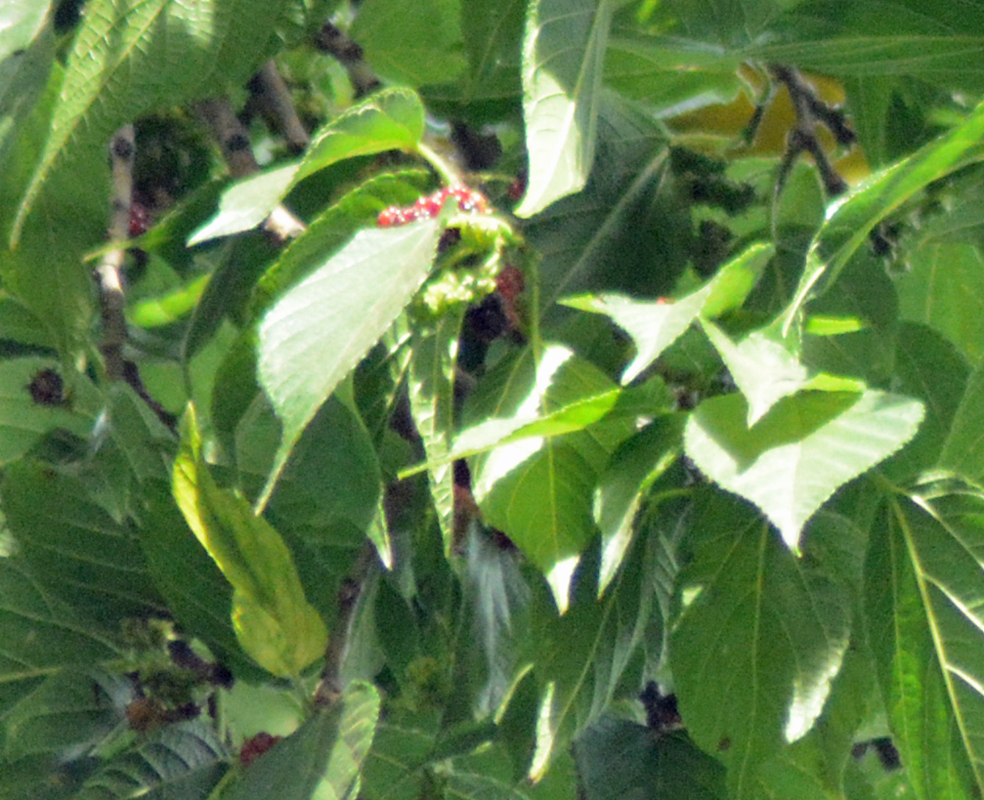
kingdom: Plantae
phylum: Tracheophyta
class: Magnoliopsida
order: Rosales
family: Moraceae
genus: Morus
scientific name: Morus celtidifolia
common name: Texas mulberry
